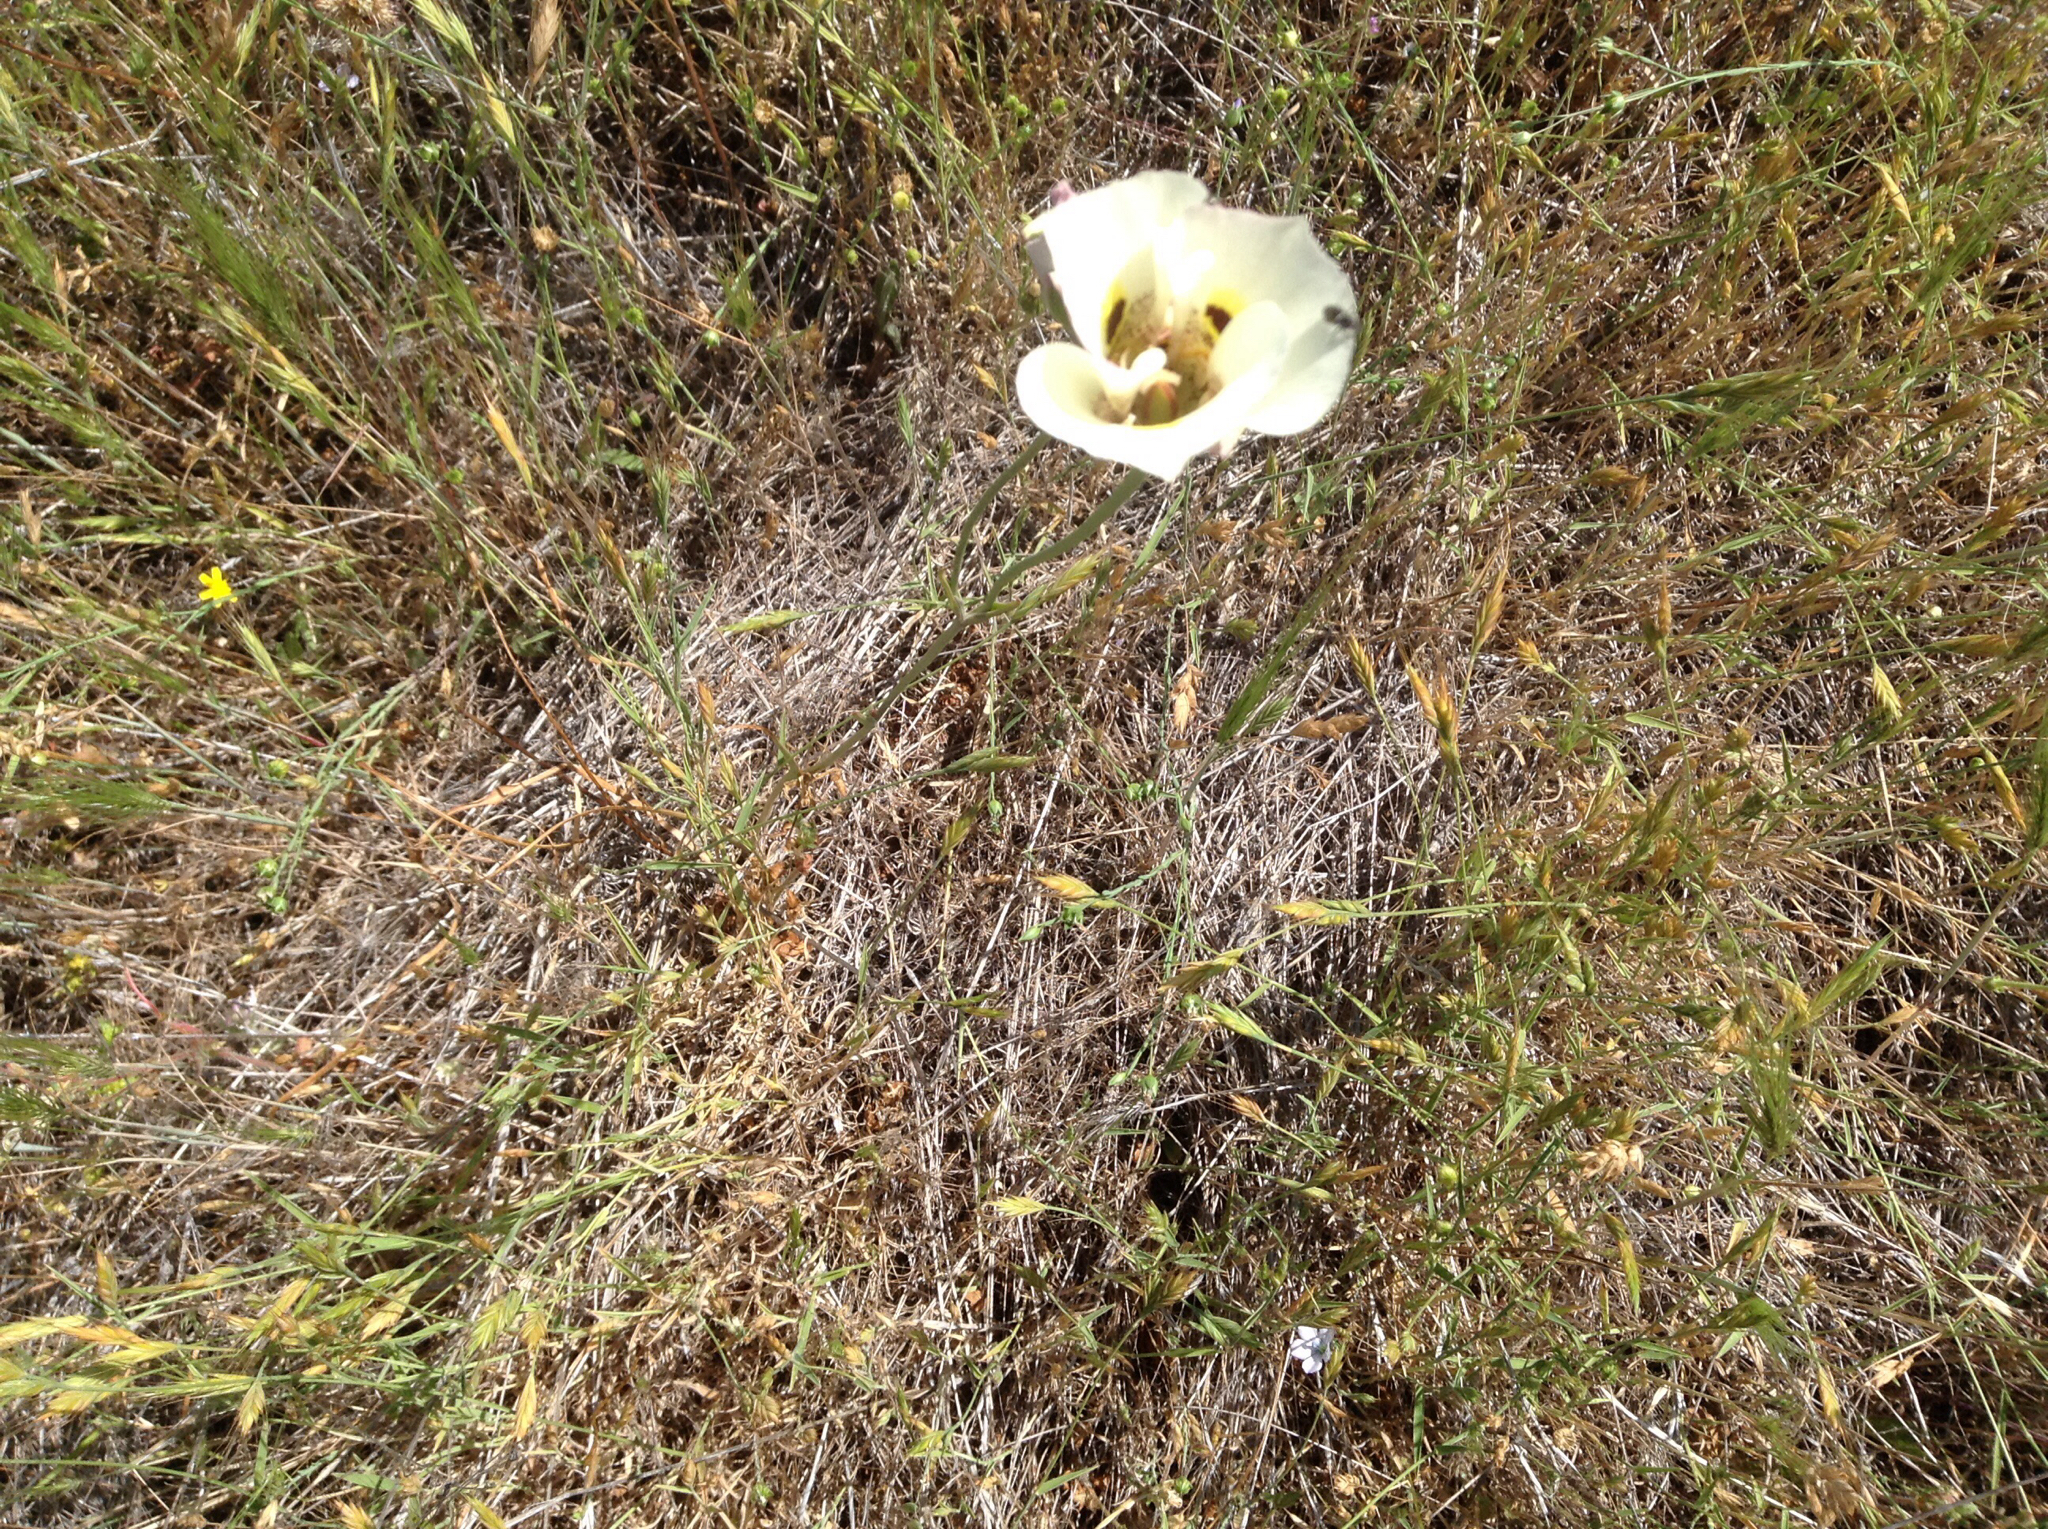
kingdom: Plantae
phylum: Tracheophyta
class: Liliopsida
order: Liliales
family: Liliaceae
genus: Calochortus
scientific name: Calochortus superbus
